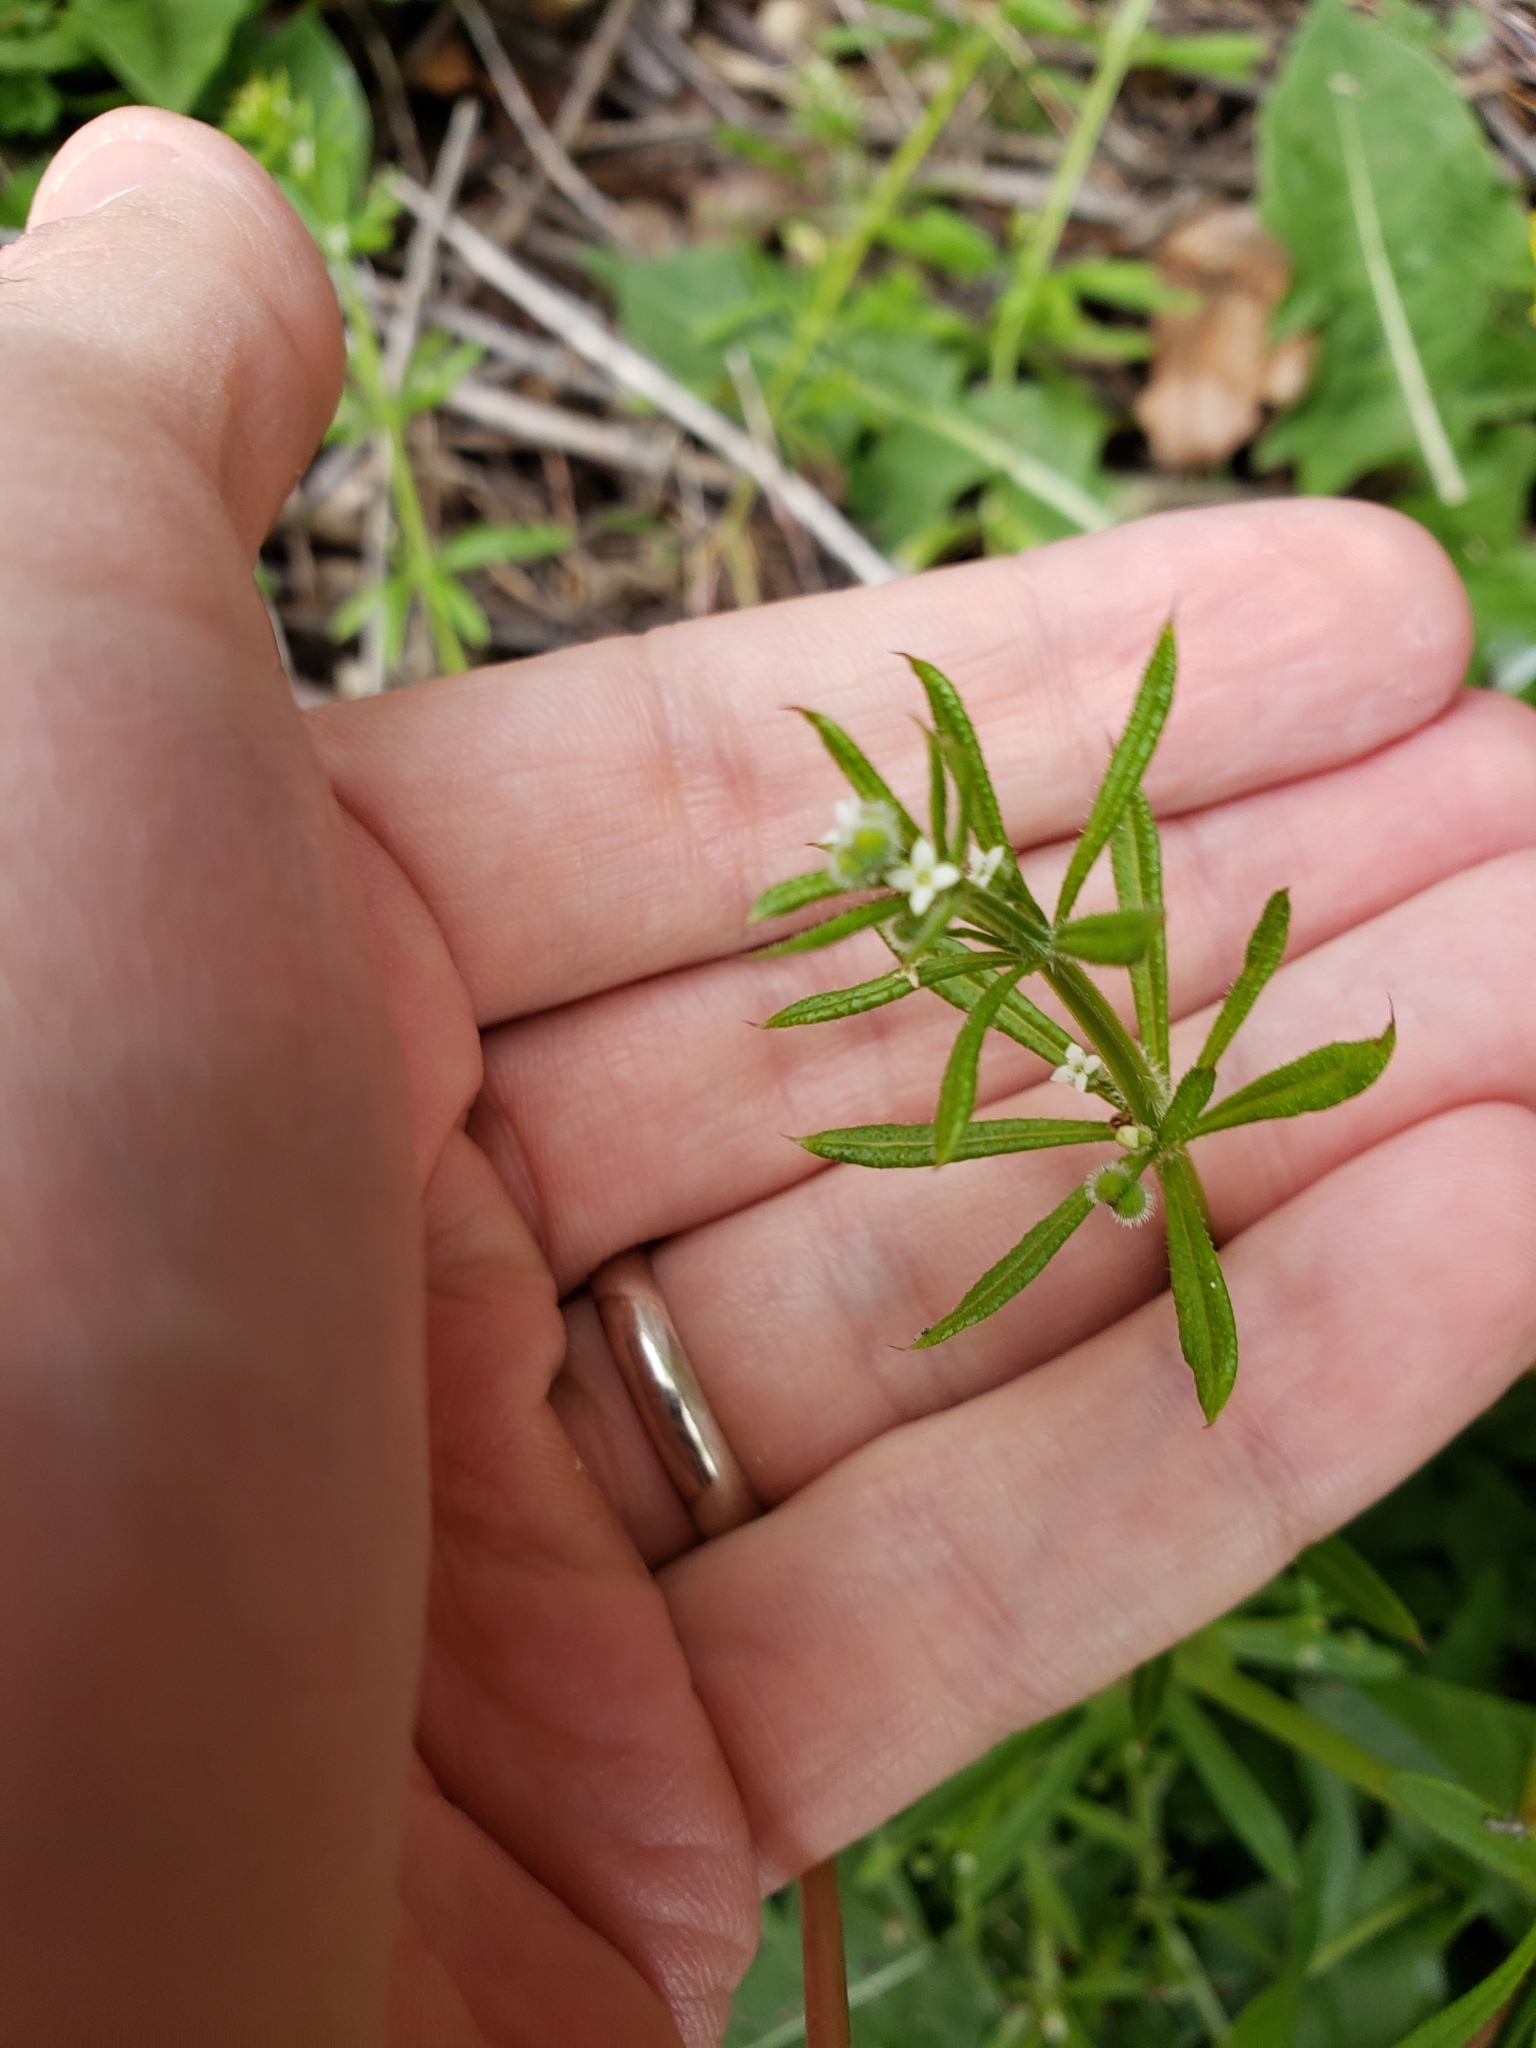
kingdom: Plantae
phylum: Tracheophyta
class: Magnoliopsida
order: Gentianales
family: Rubiaceae
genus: Galium
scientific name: Galium aparine
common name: Cleavers
